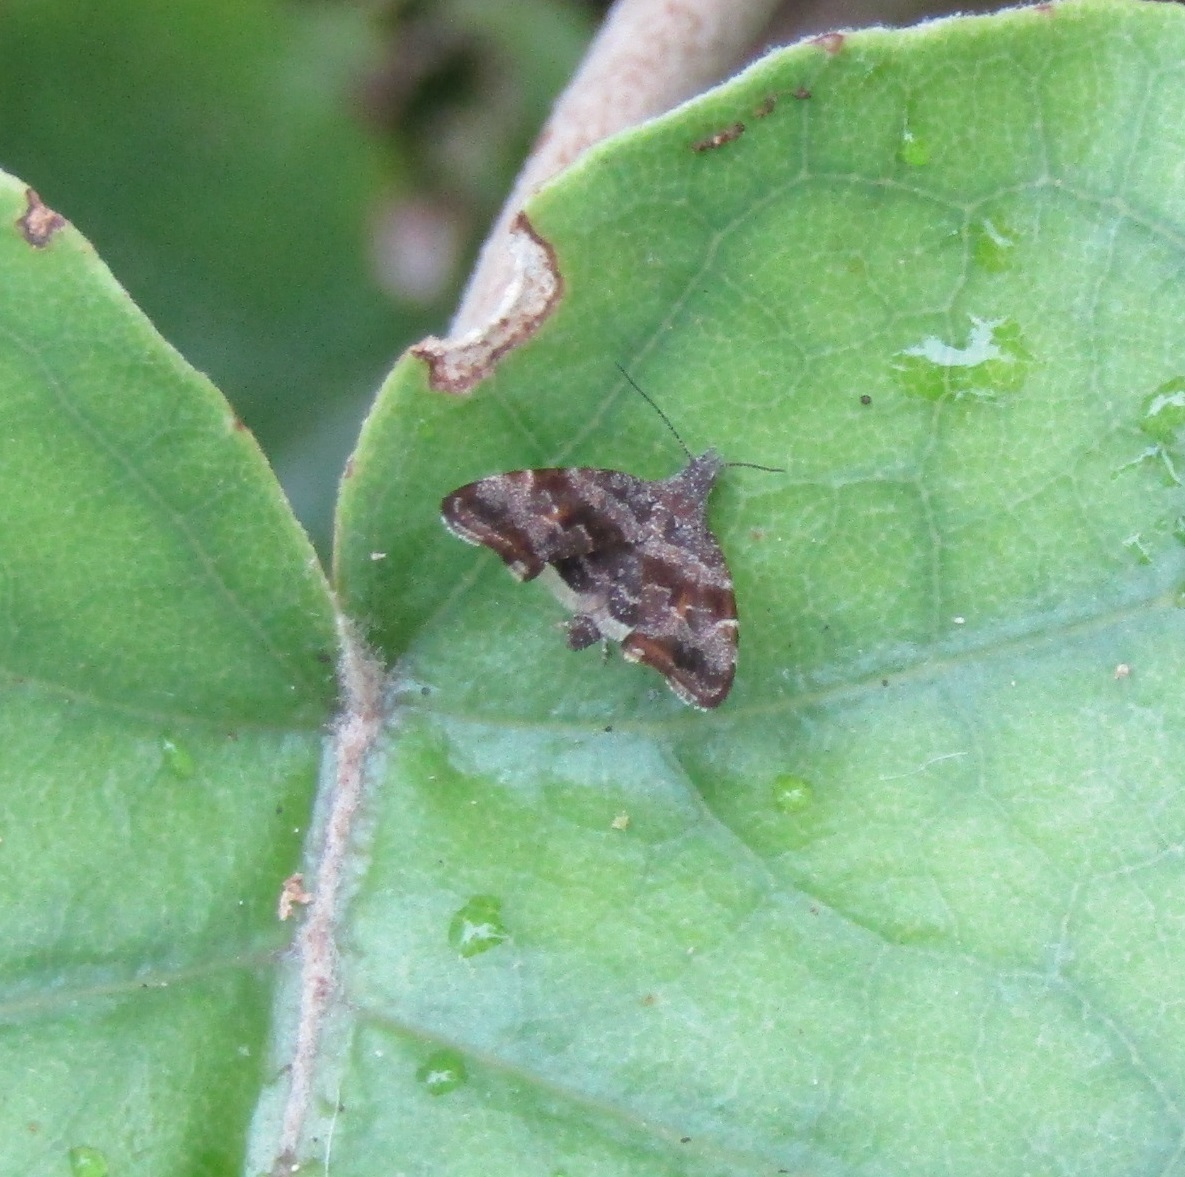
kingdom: Animalia
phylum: Arthropoda
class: Insecta
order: Lepidoptera
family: Choreutidae
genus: Asterivora
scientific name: Asterivora colpota
